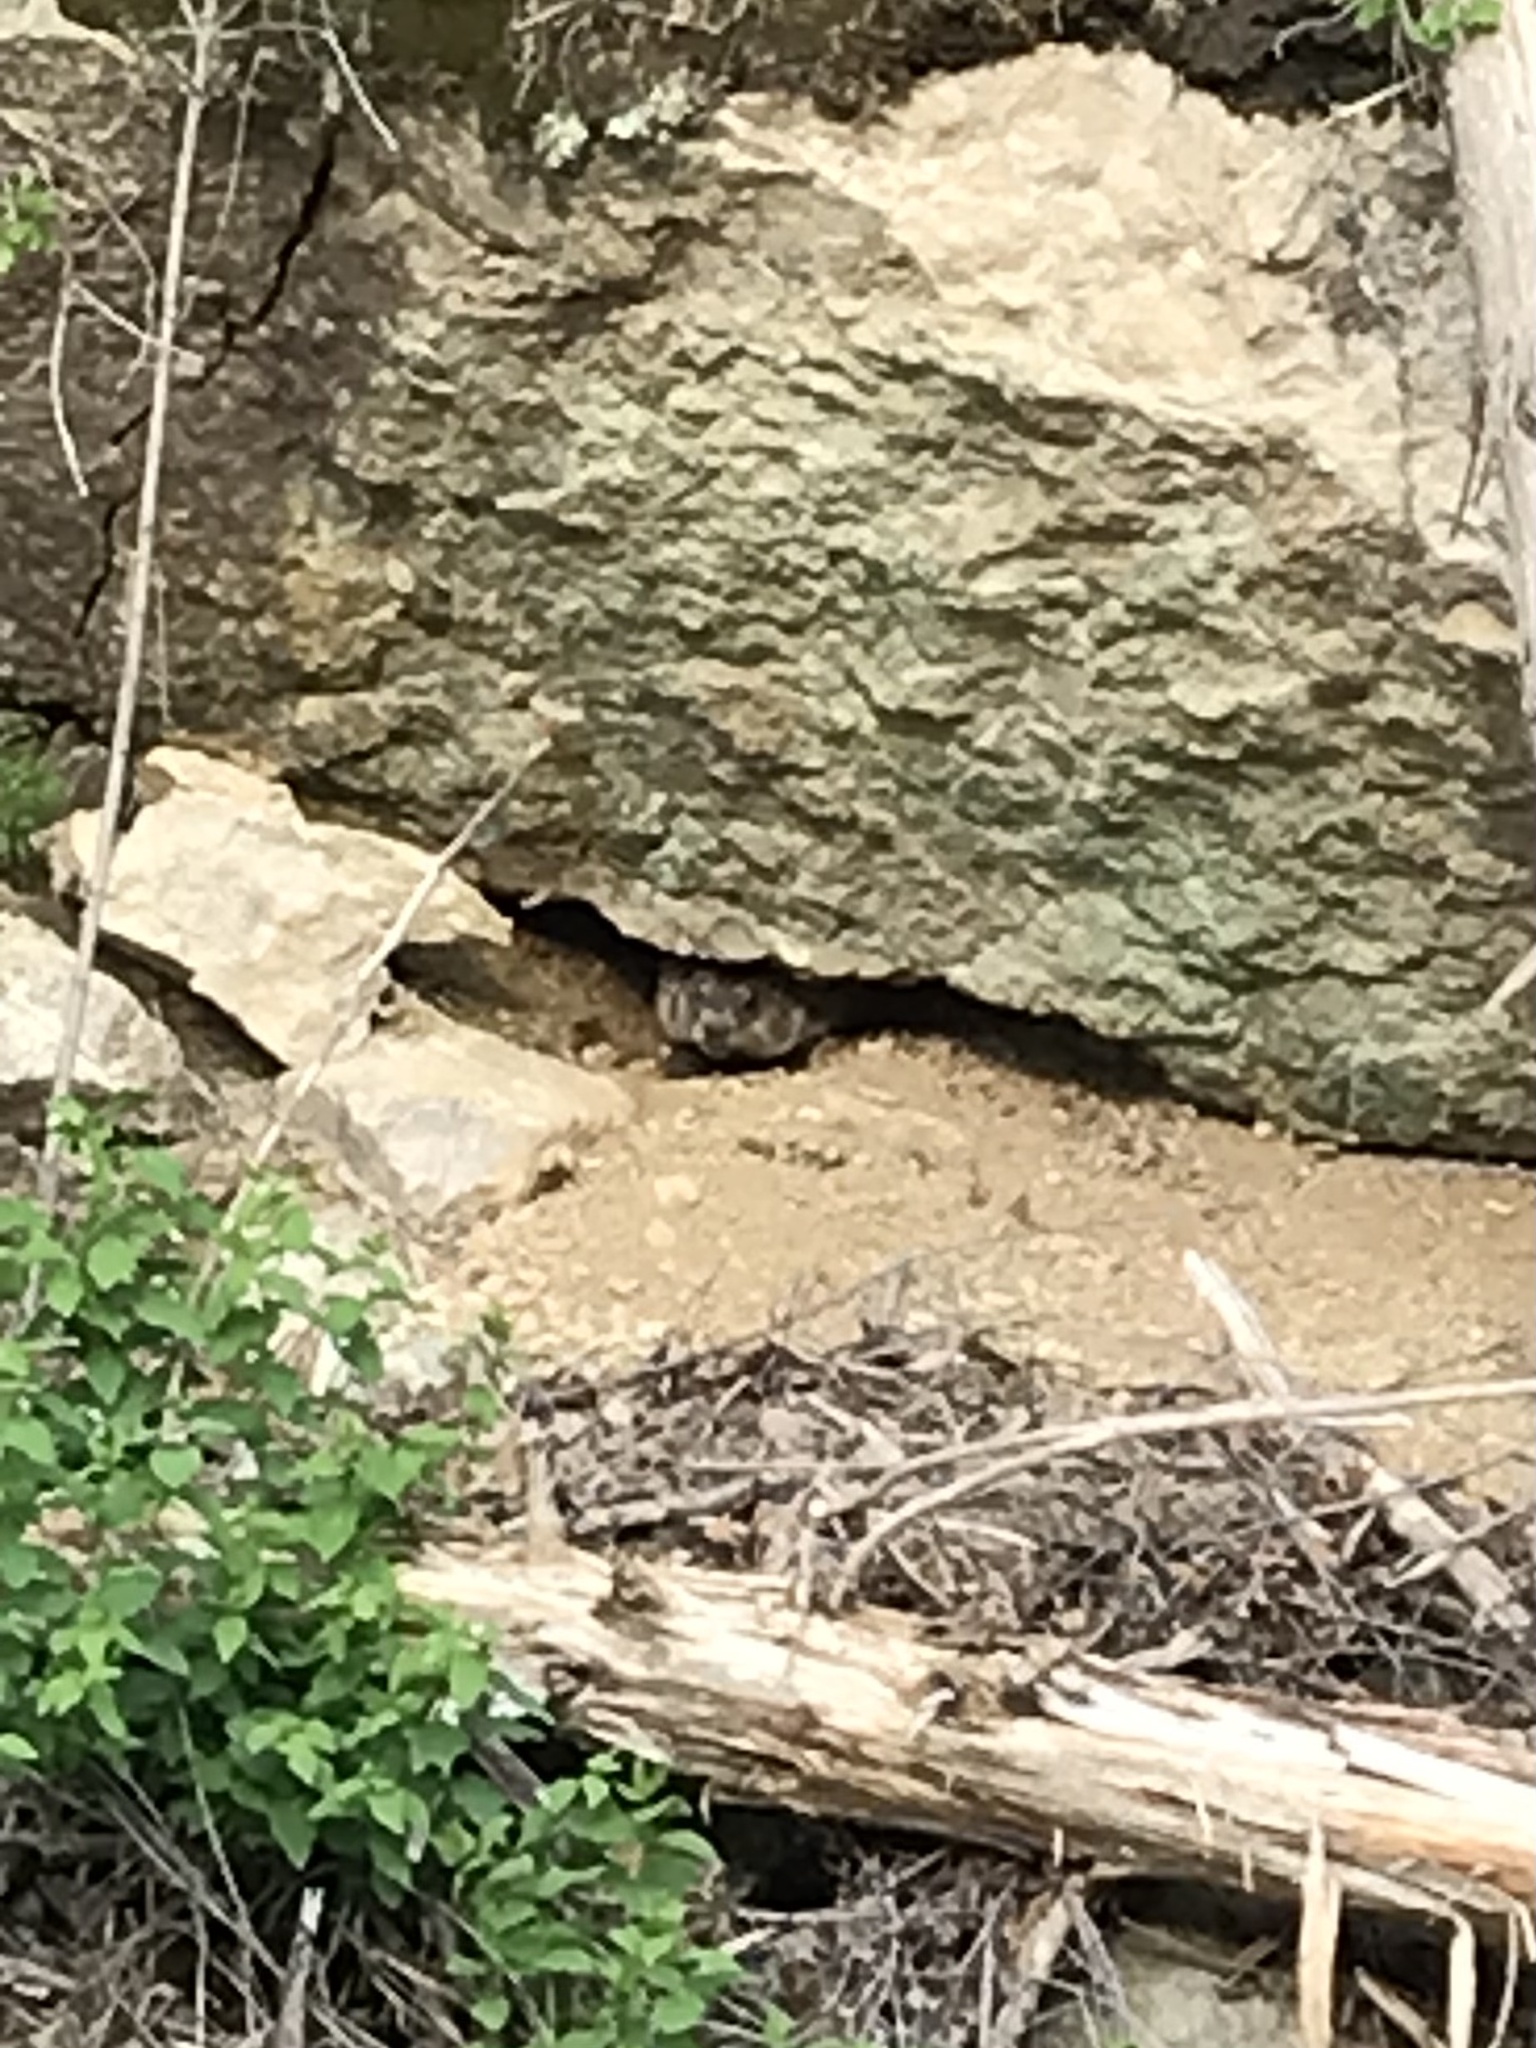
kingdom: Animalia
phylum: Chordata
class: Mammalia
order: Rodentia
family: Sciuridae
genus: Marmota
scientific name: Marmota monax
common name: Groundhog
